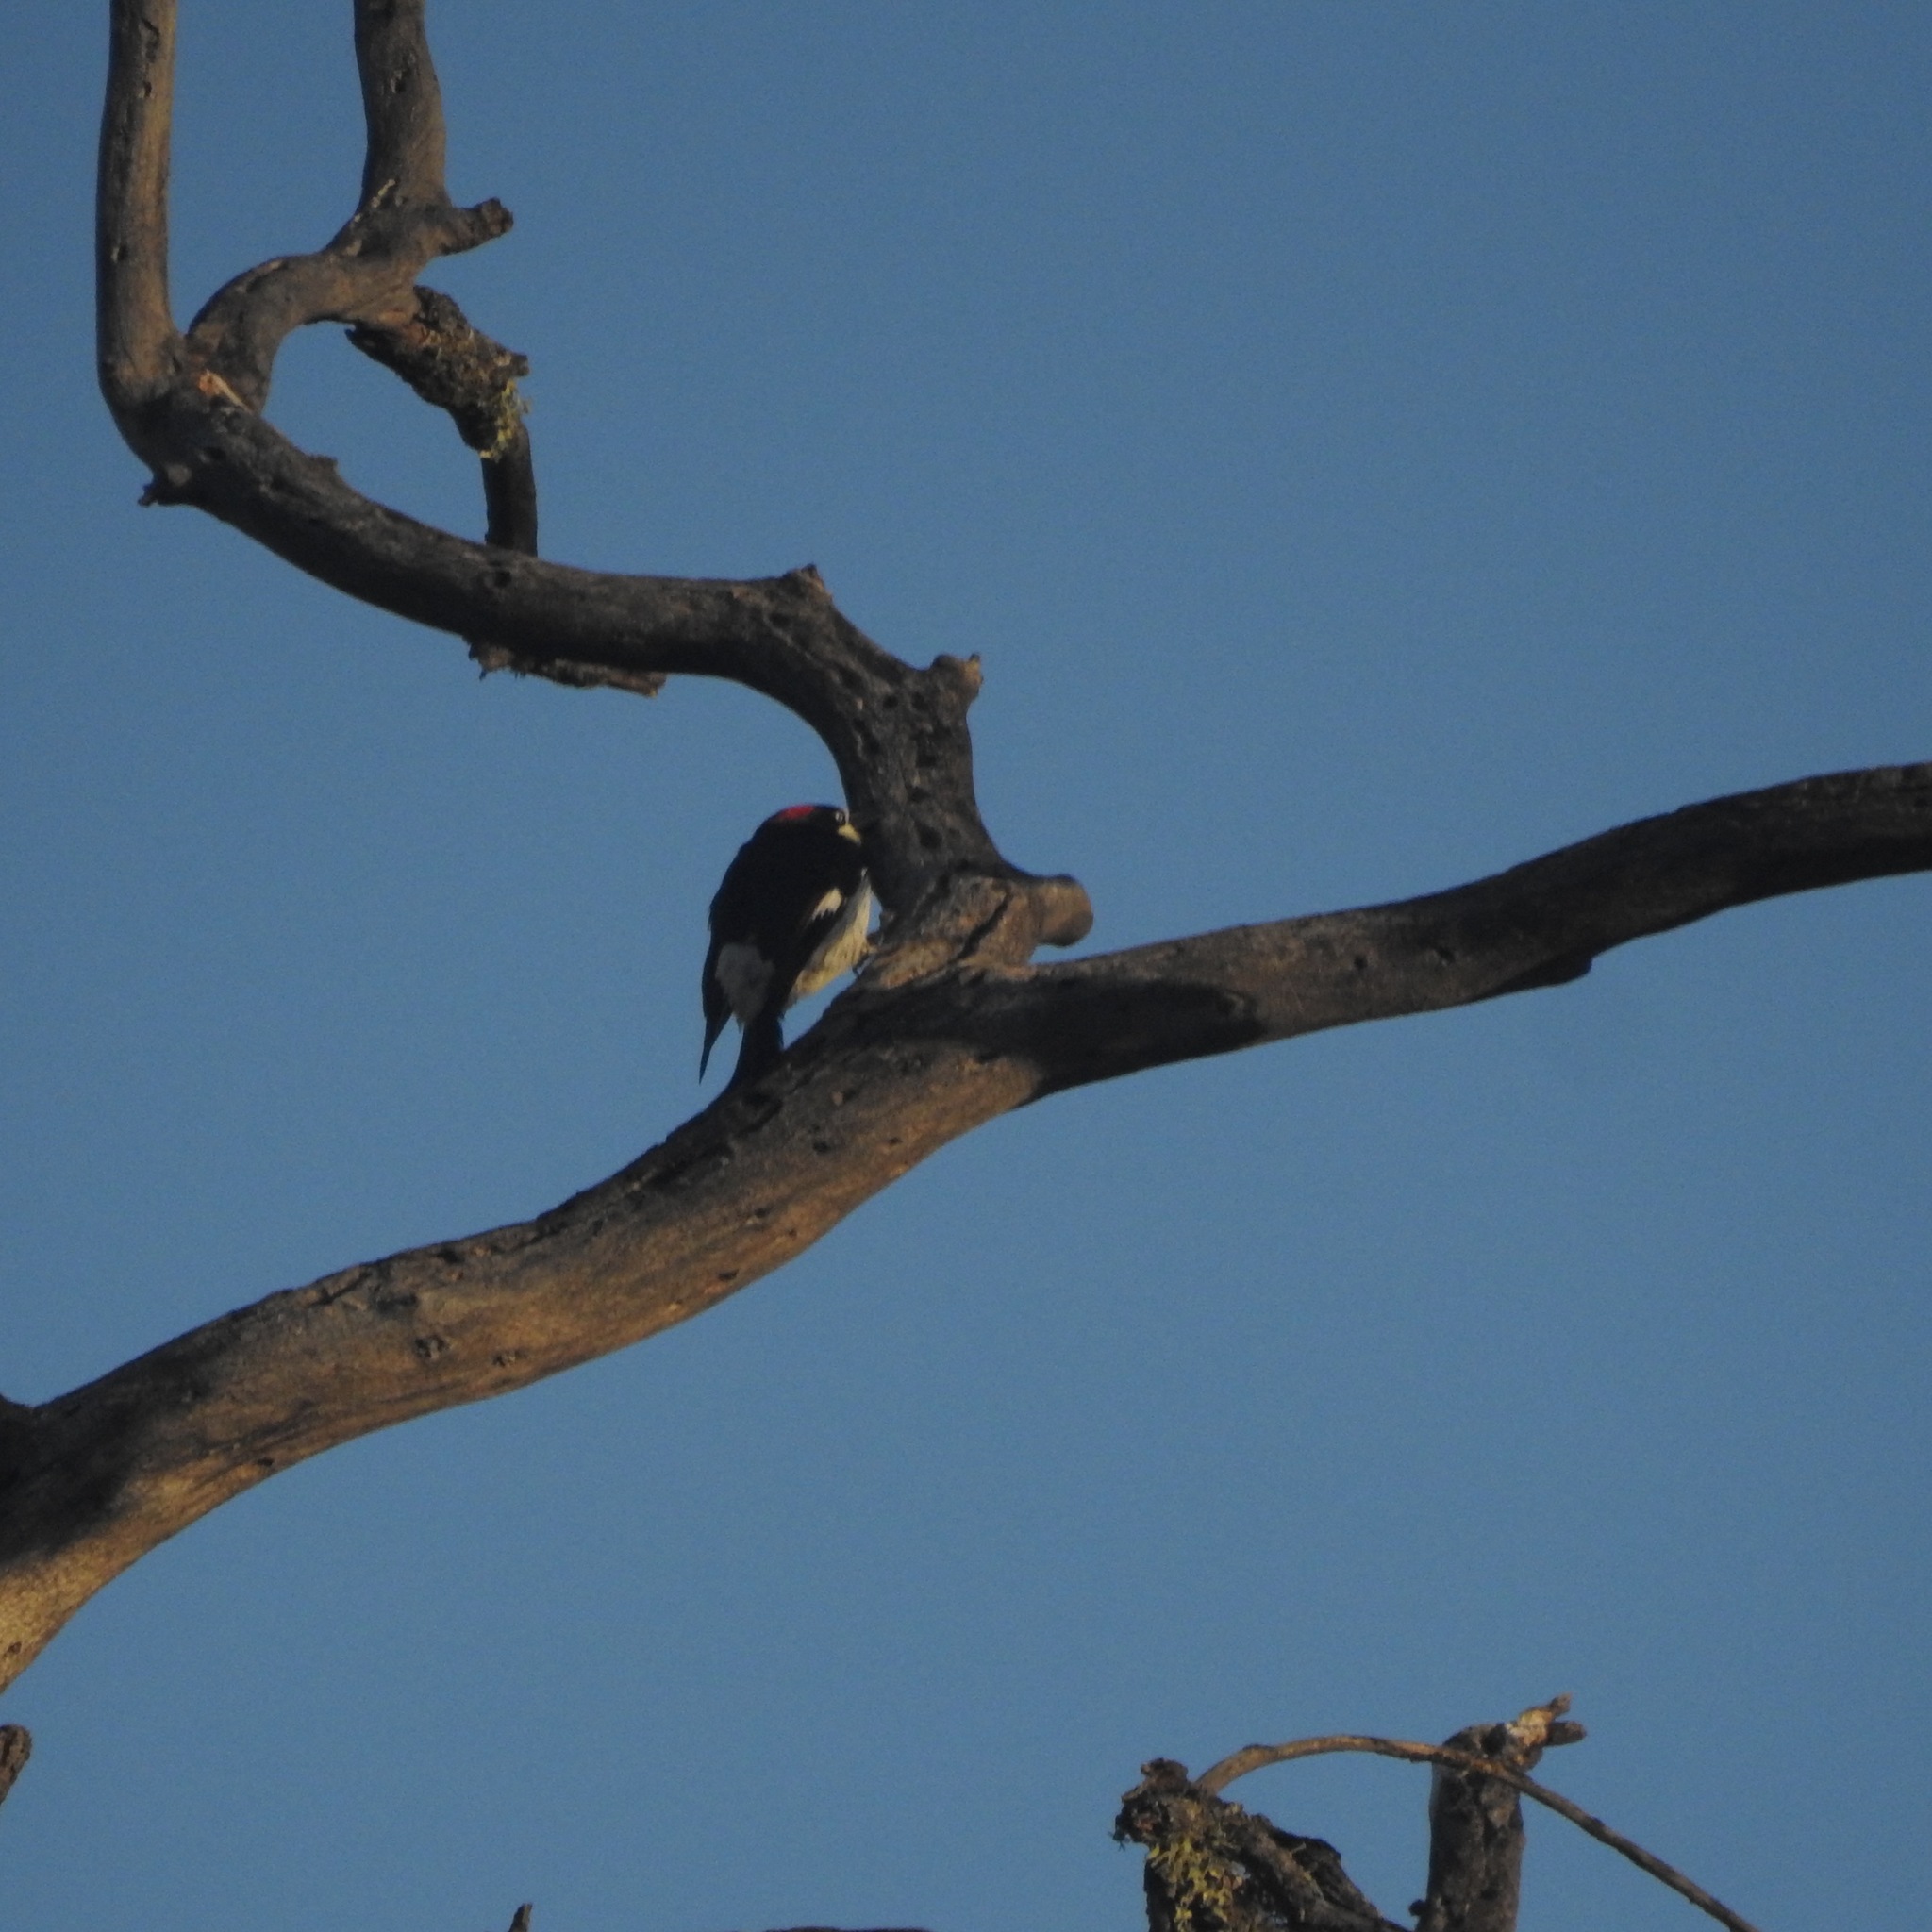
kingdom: Animalia
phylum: Chordata
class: Aves
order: Piciformes
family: Picidae
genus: Melanerpes
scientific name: Melanerpes formicivorus
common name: Acorn woodpecker
